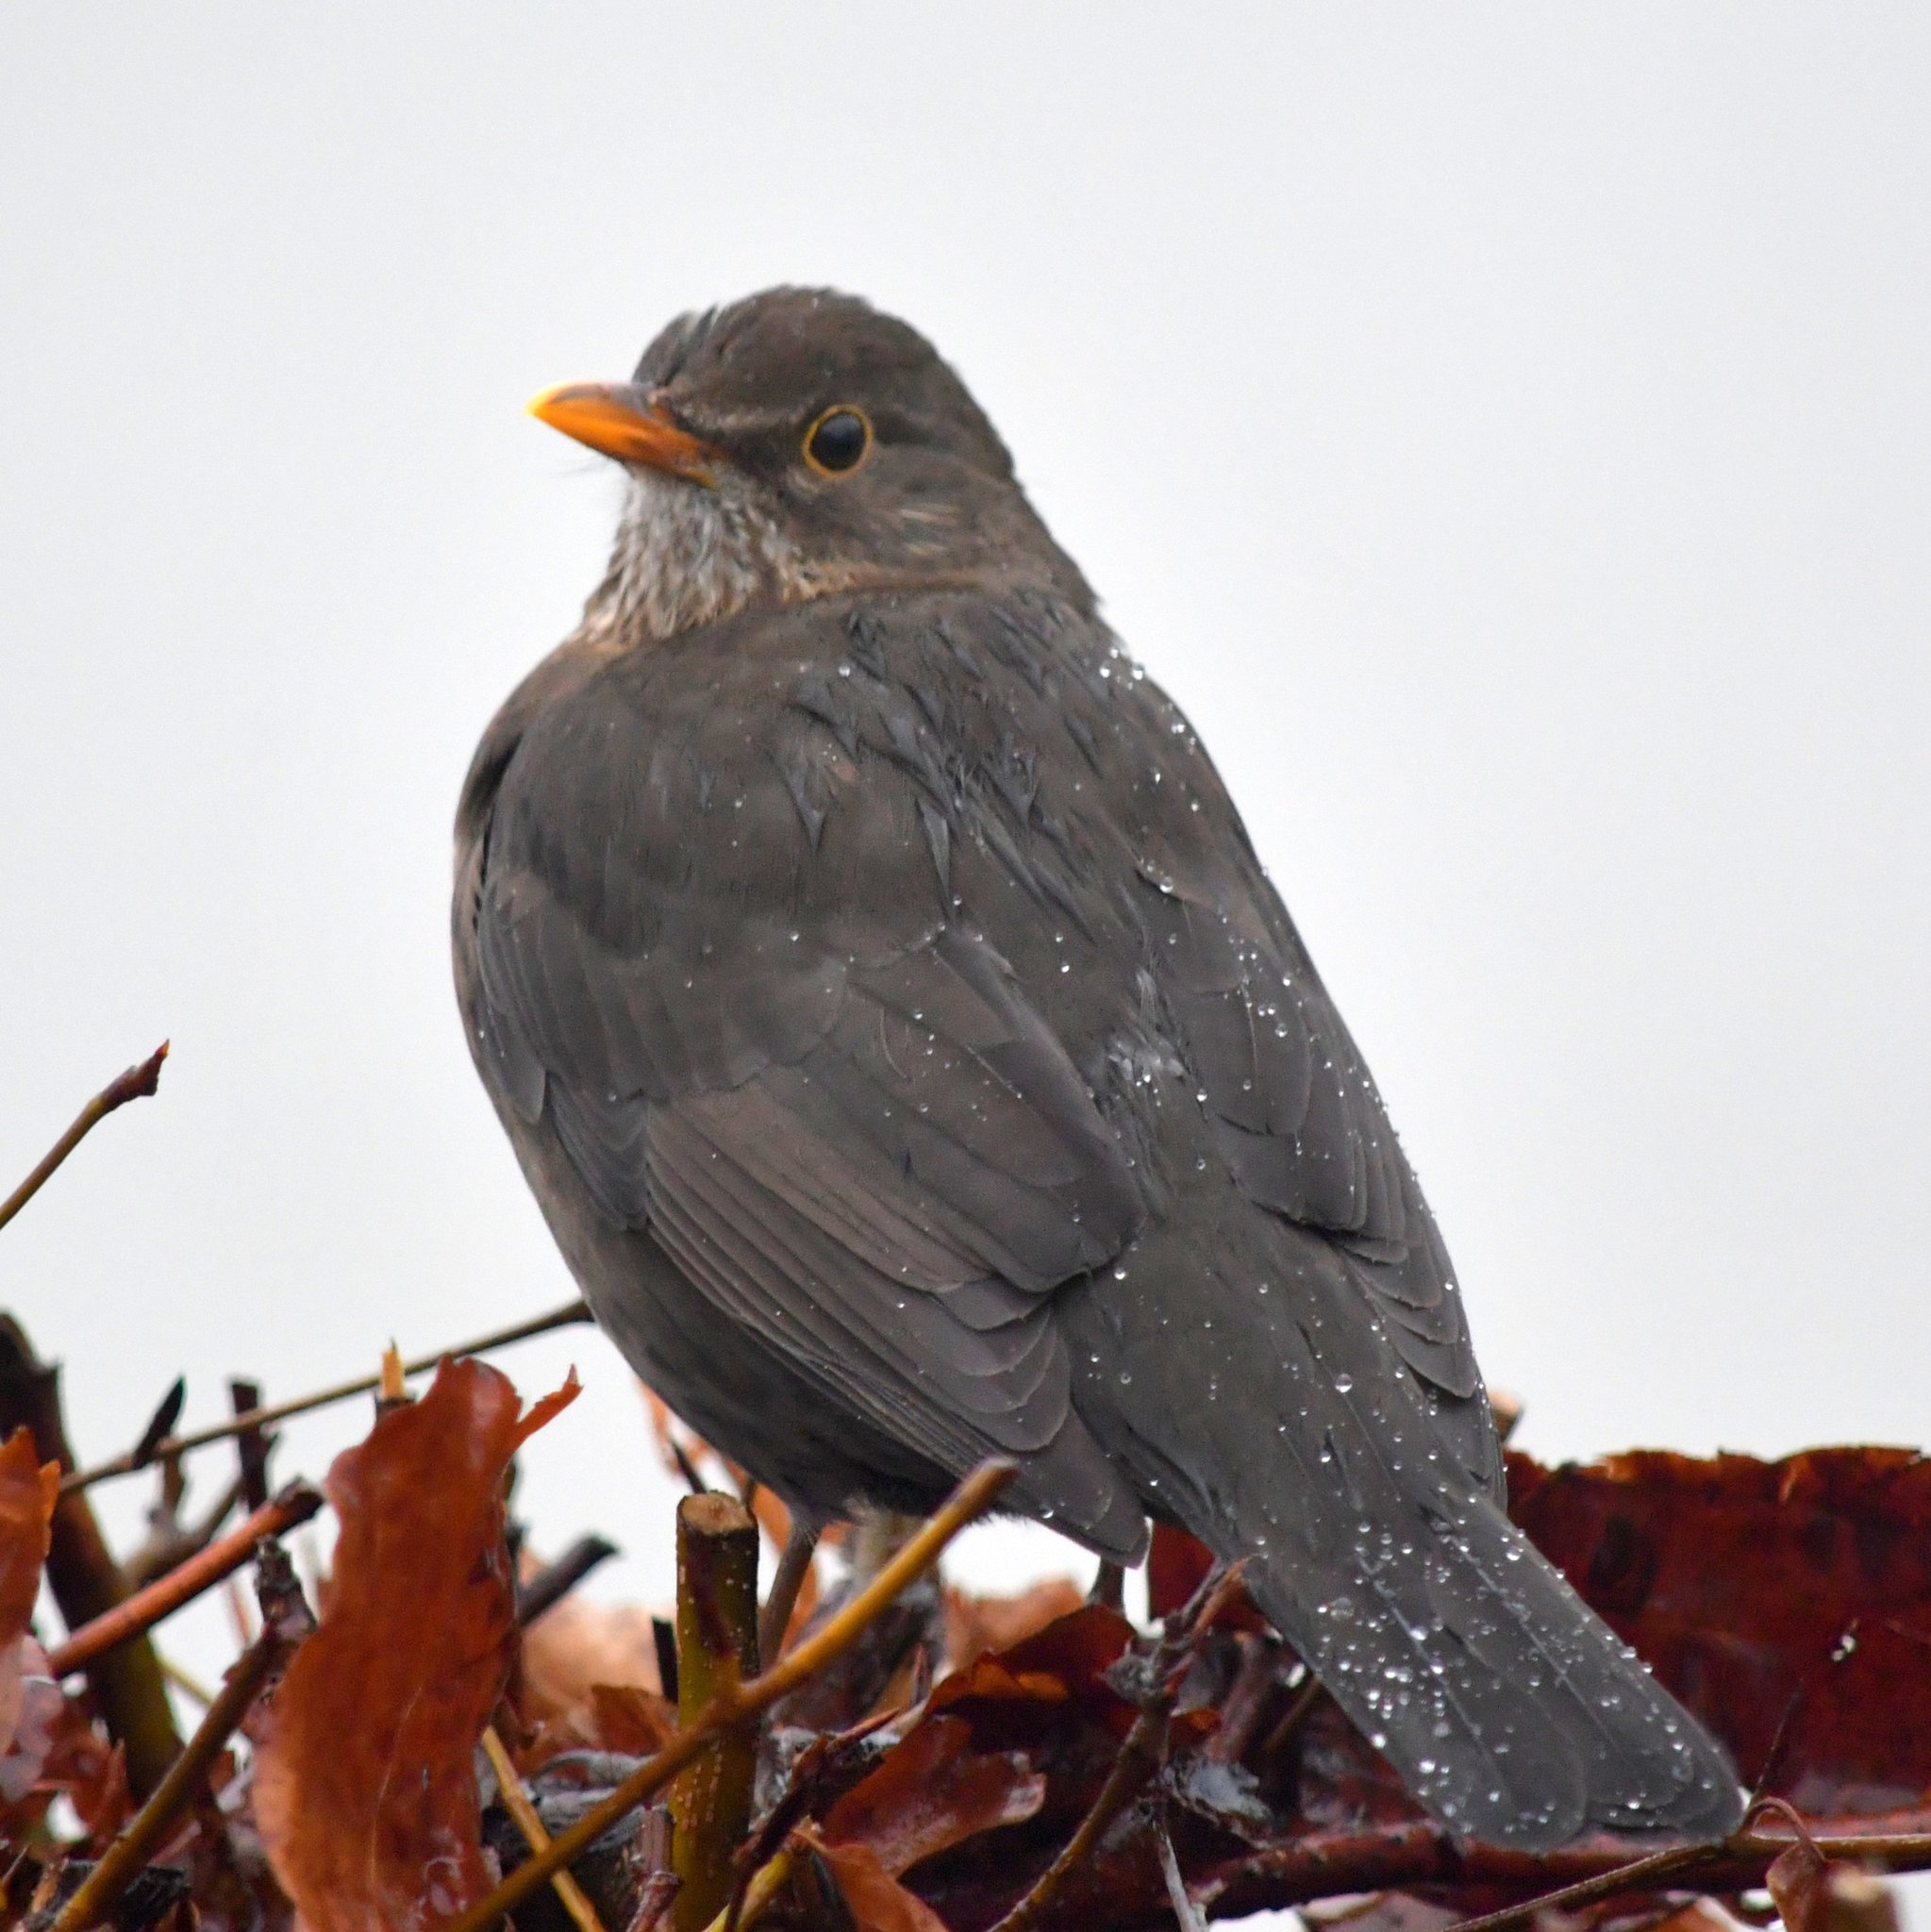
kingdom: Animalia
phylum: Chordata
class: Aves
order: Passeriformes
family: Turdidae
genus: Turdus
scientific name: Turdus merula
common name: Common blackbird
